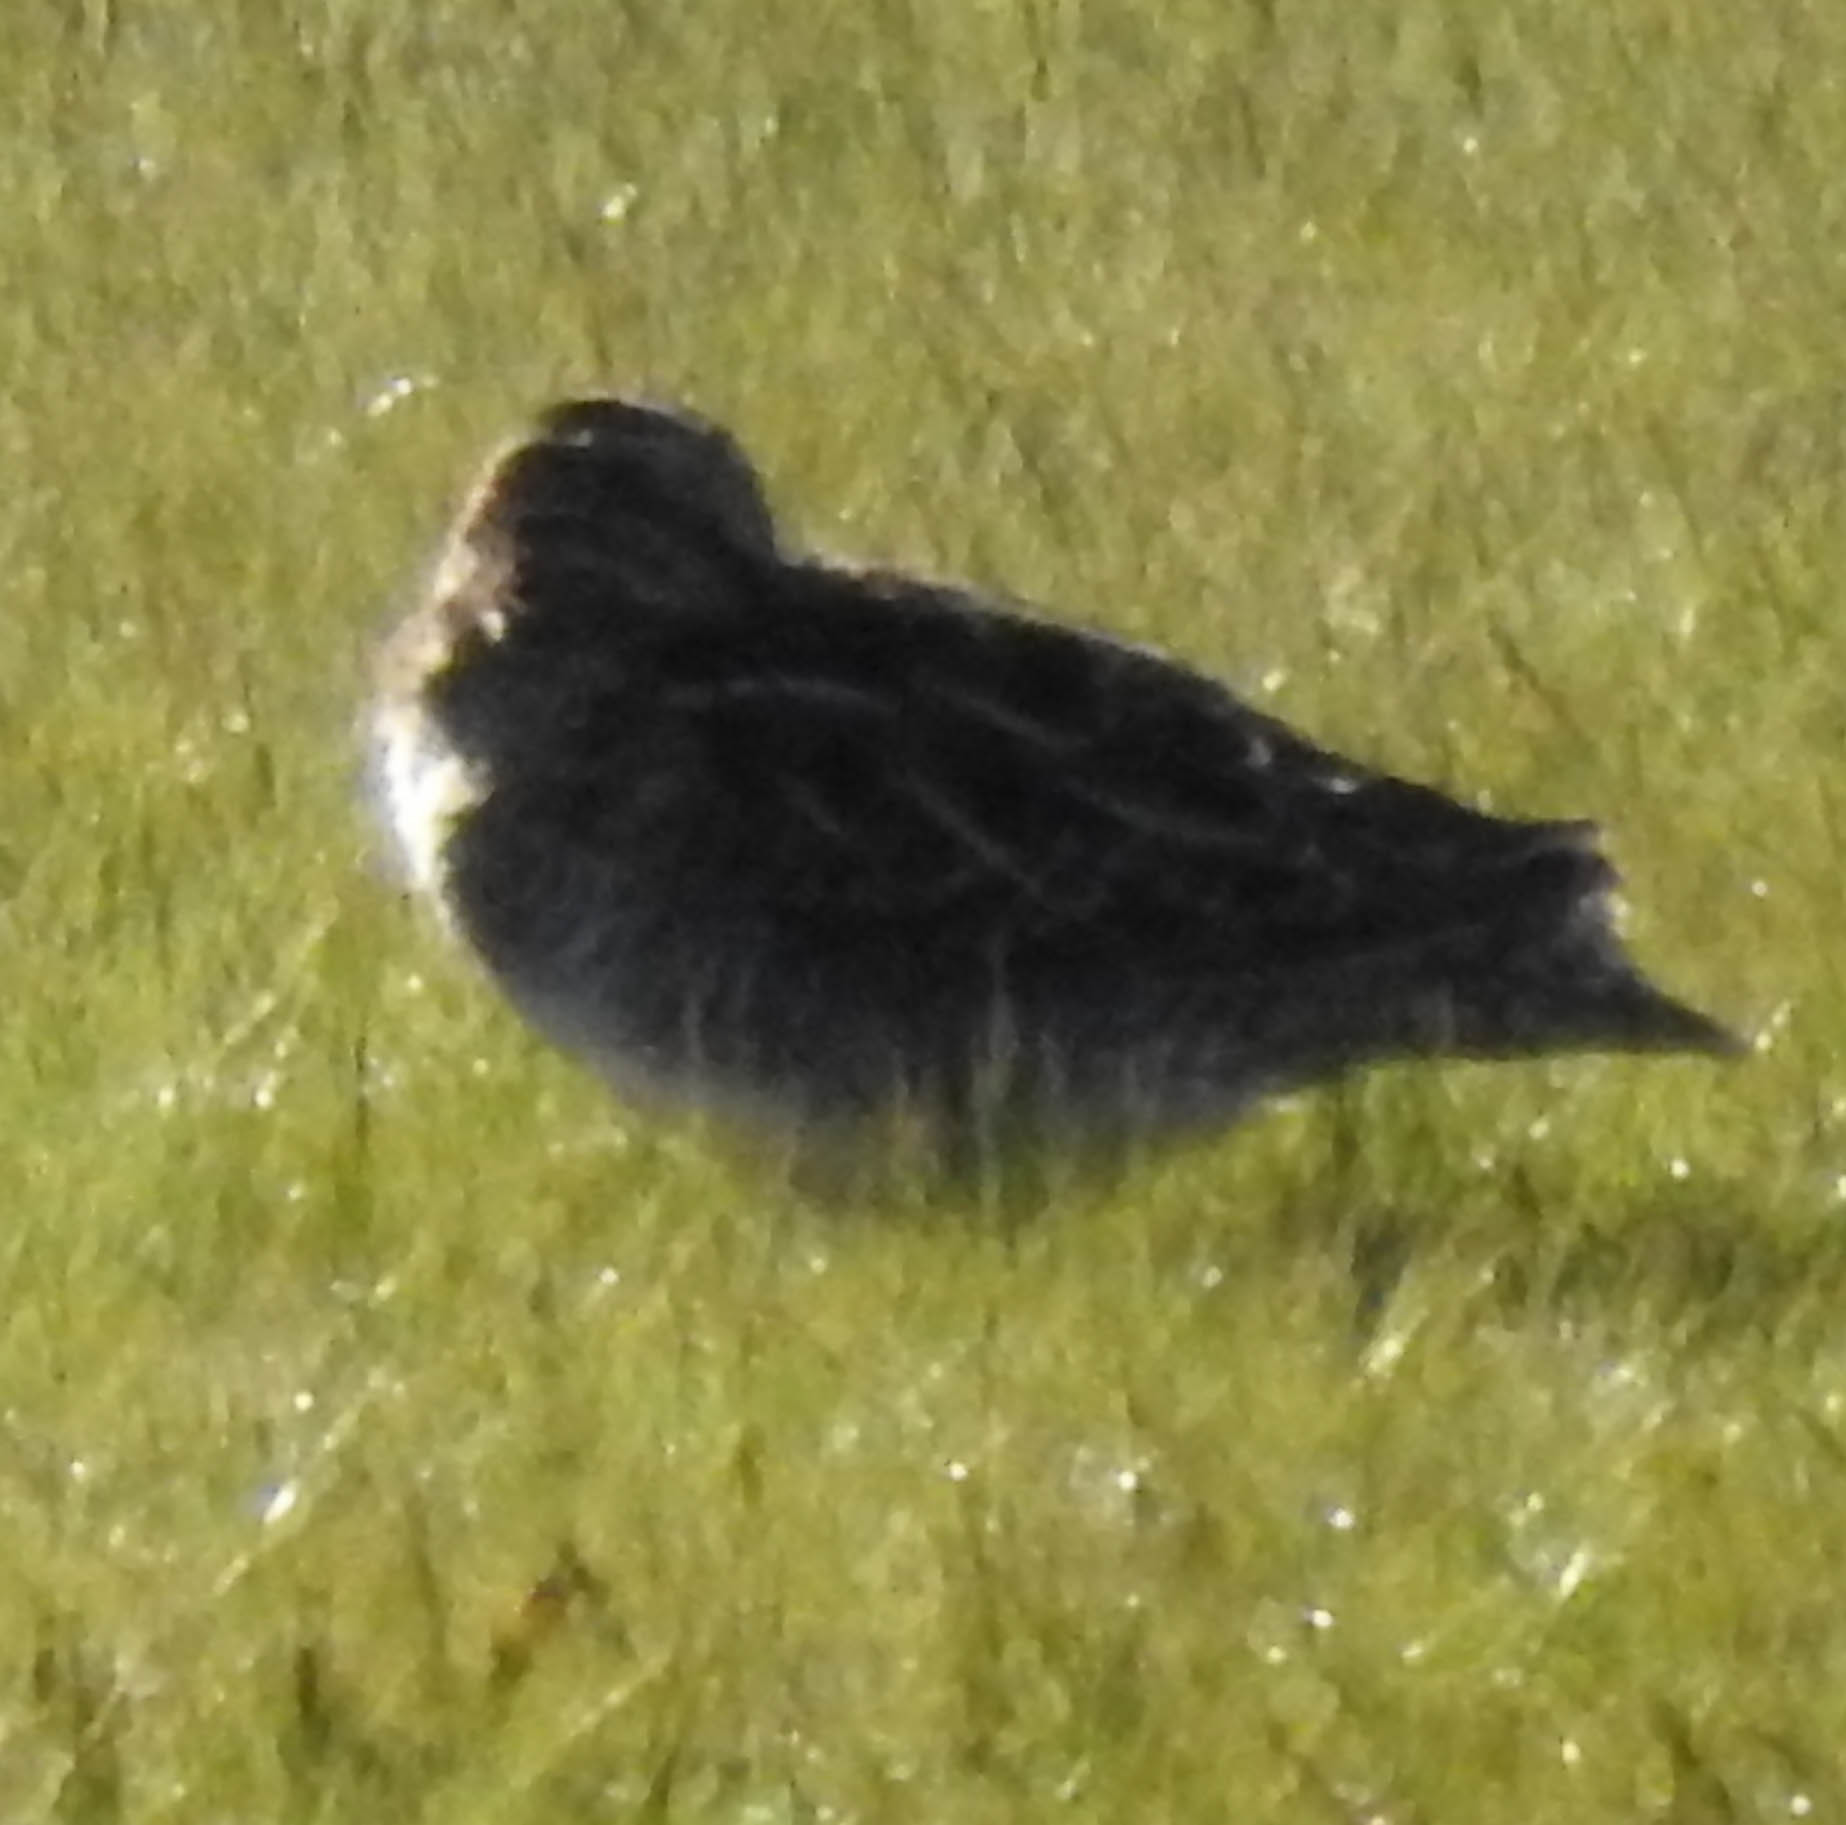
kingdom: Animalia
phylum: Chordata
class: Aves
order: Charadriiformes
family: Scolopacidae
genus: Gallinago
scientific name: Gallinago delicata
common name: Wilson's snipe
